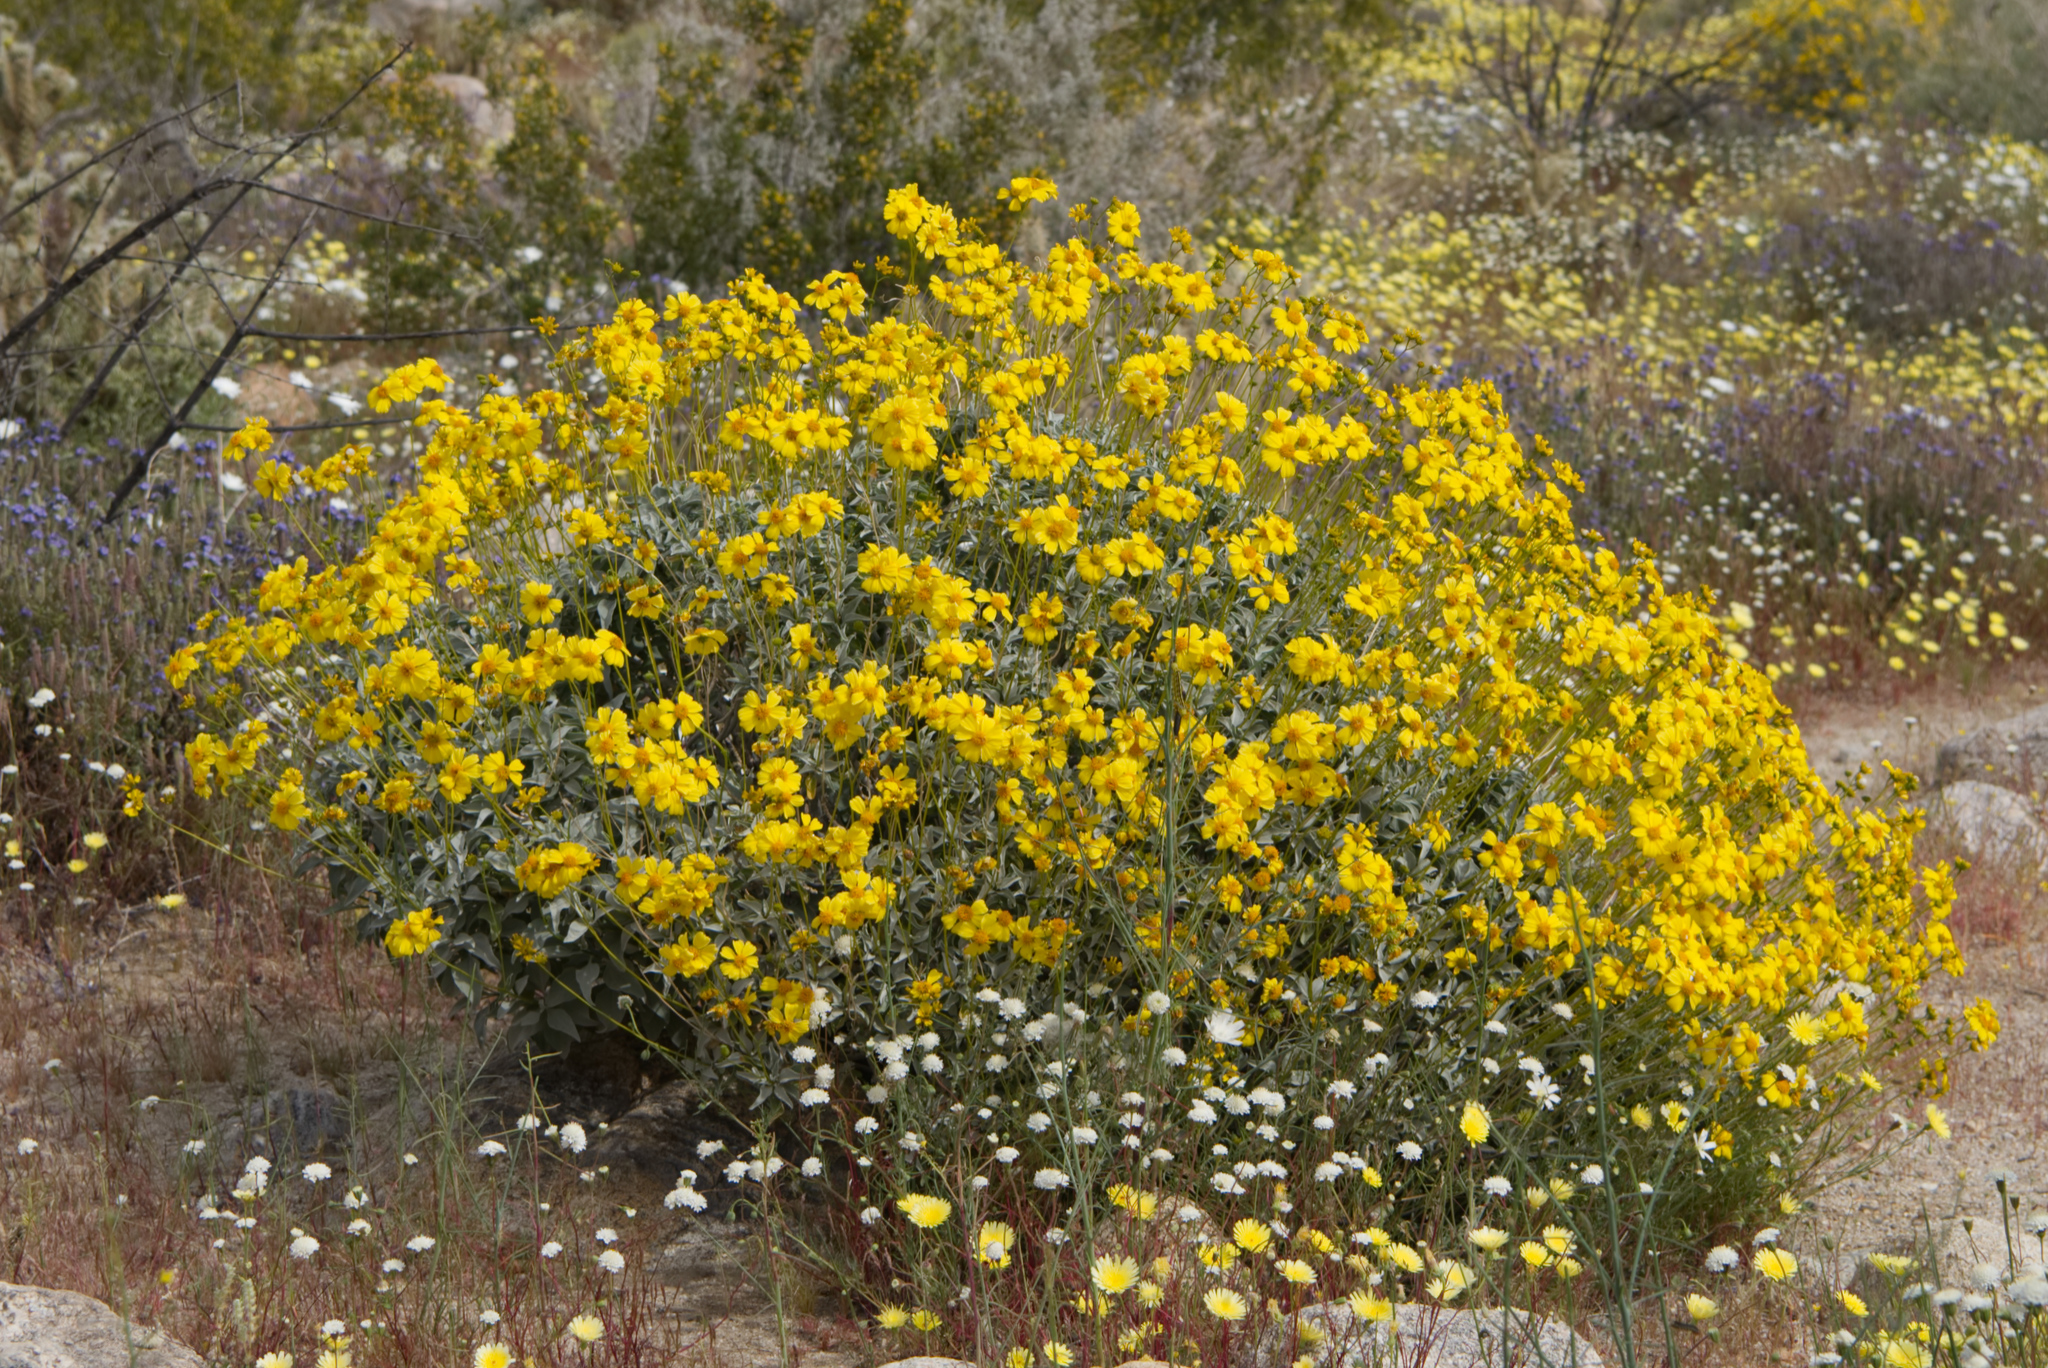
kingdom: Plantae
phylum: Tracheophyta
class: Magnoliopsida
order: Asterales
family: Asteraceae
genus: Encelia
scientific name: Encelia farinosa
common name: Brittlebush
